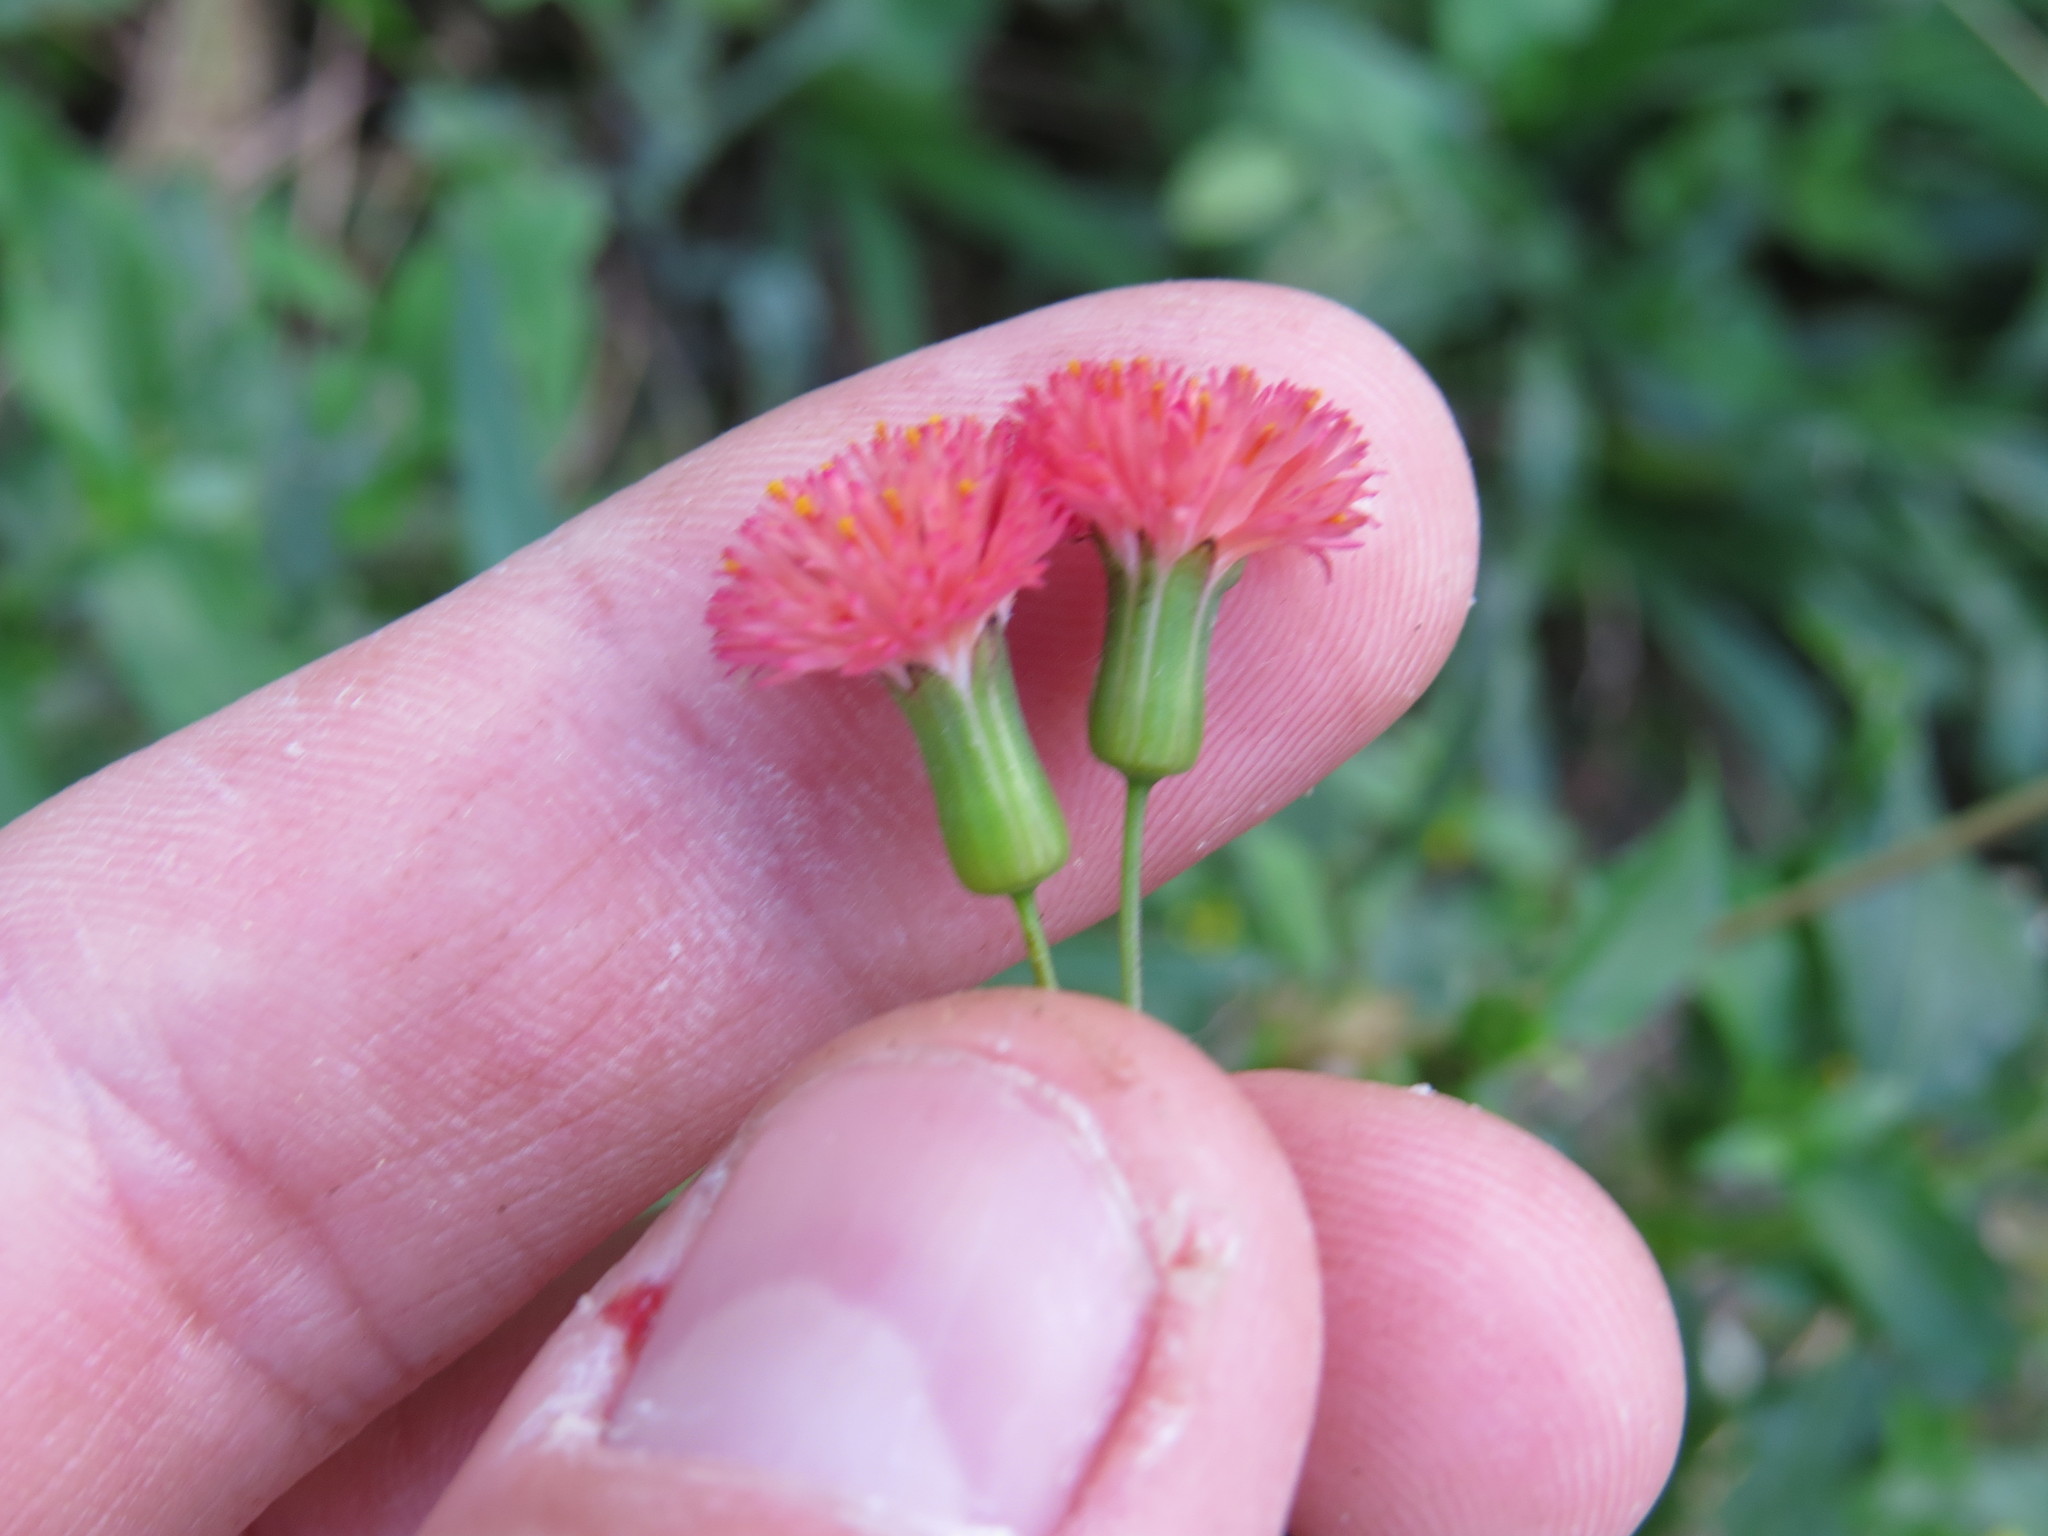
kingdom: Plantae
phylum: Tracheophyta
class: Magnoliopsida
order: Asterales
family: Asteraceae
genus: Emilia
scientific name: Emilia fosbergii
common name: Florida tasselflower
